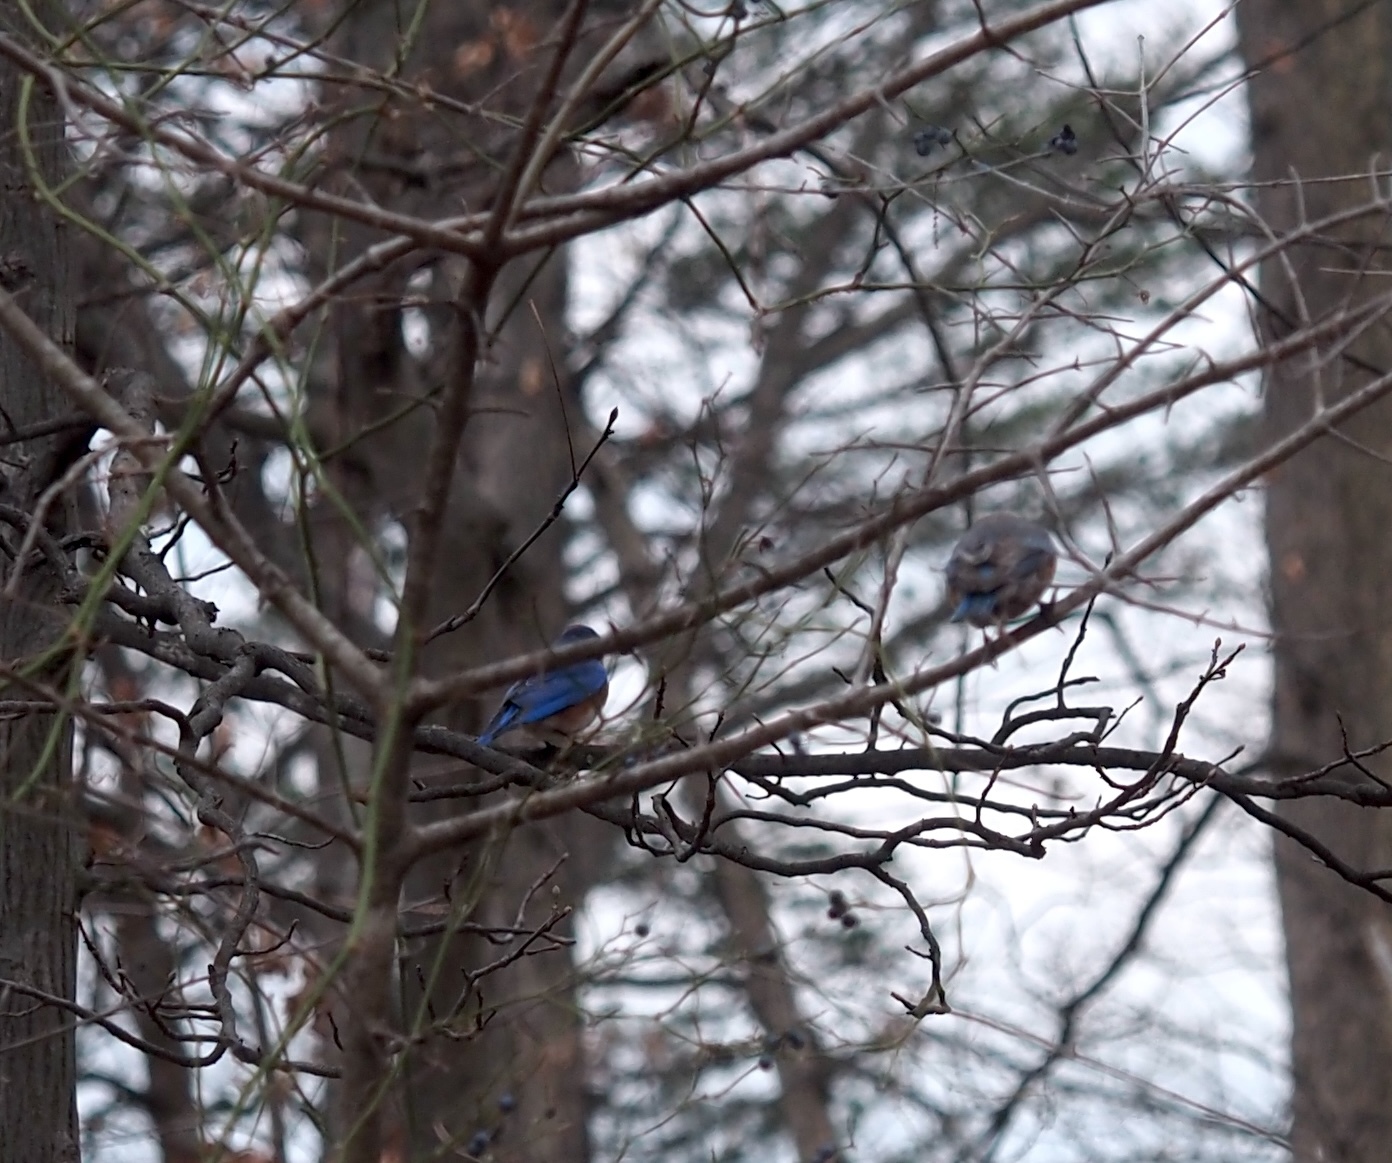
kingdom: Animalia
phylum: Chordata
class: Aves
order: Passeriformes
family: Turdidae
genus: Sialia
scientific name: Sialia sialis
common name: Eastern bluebird
